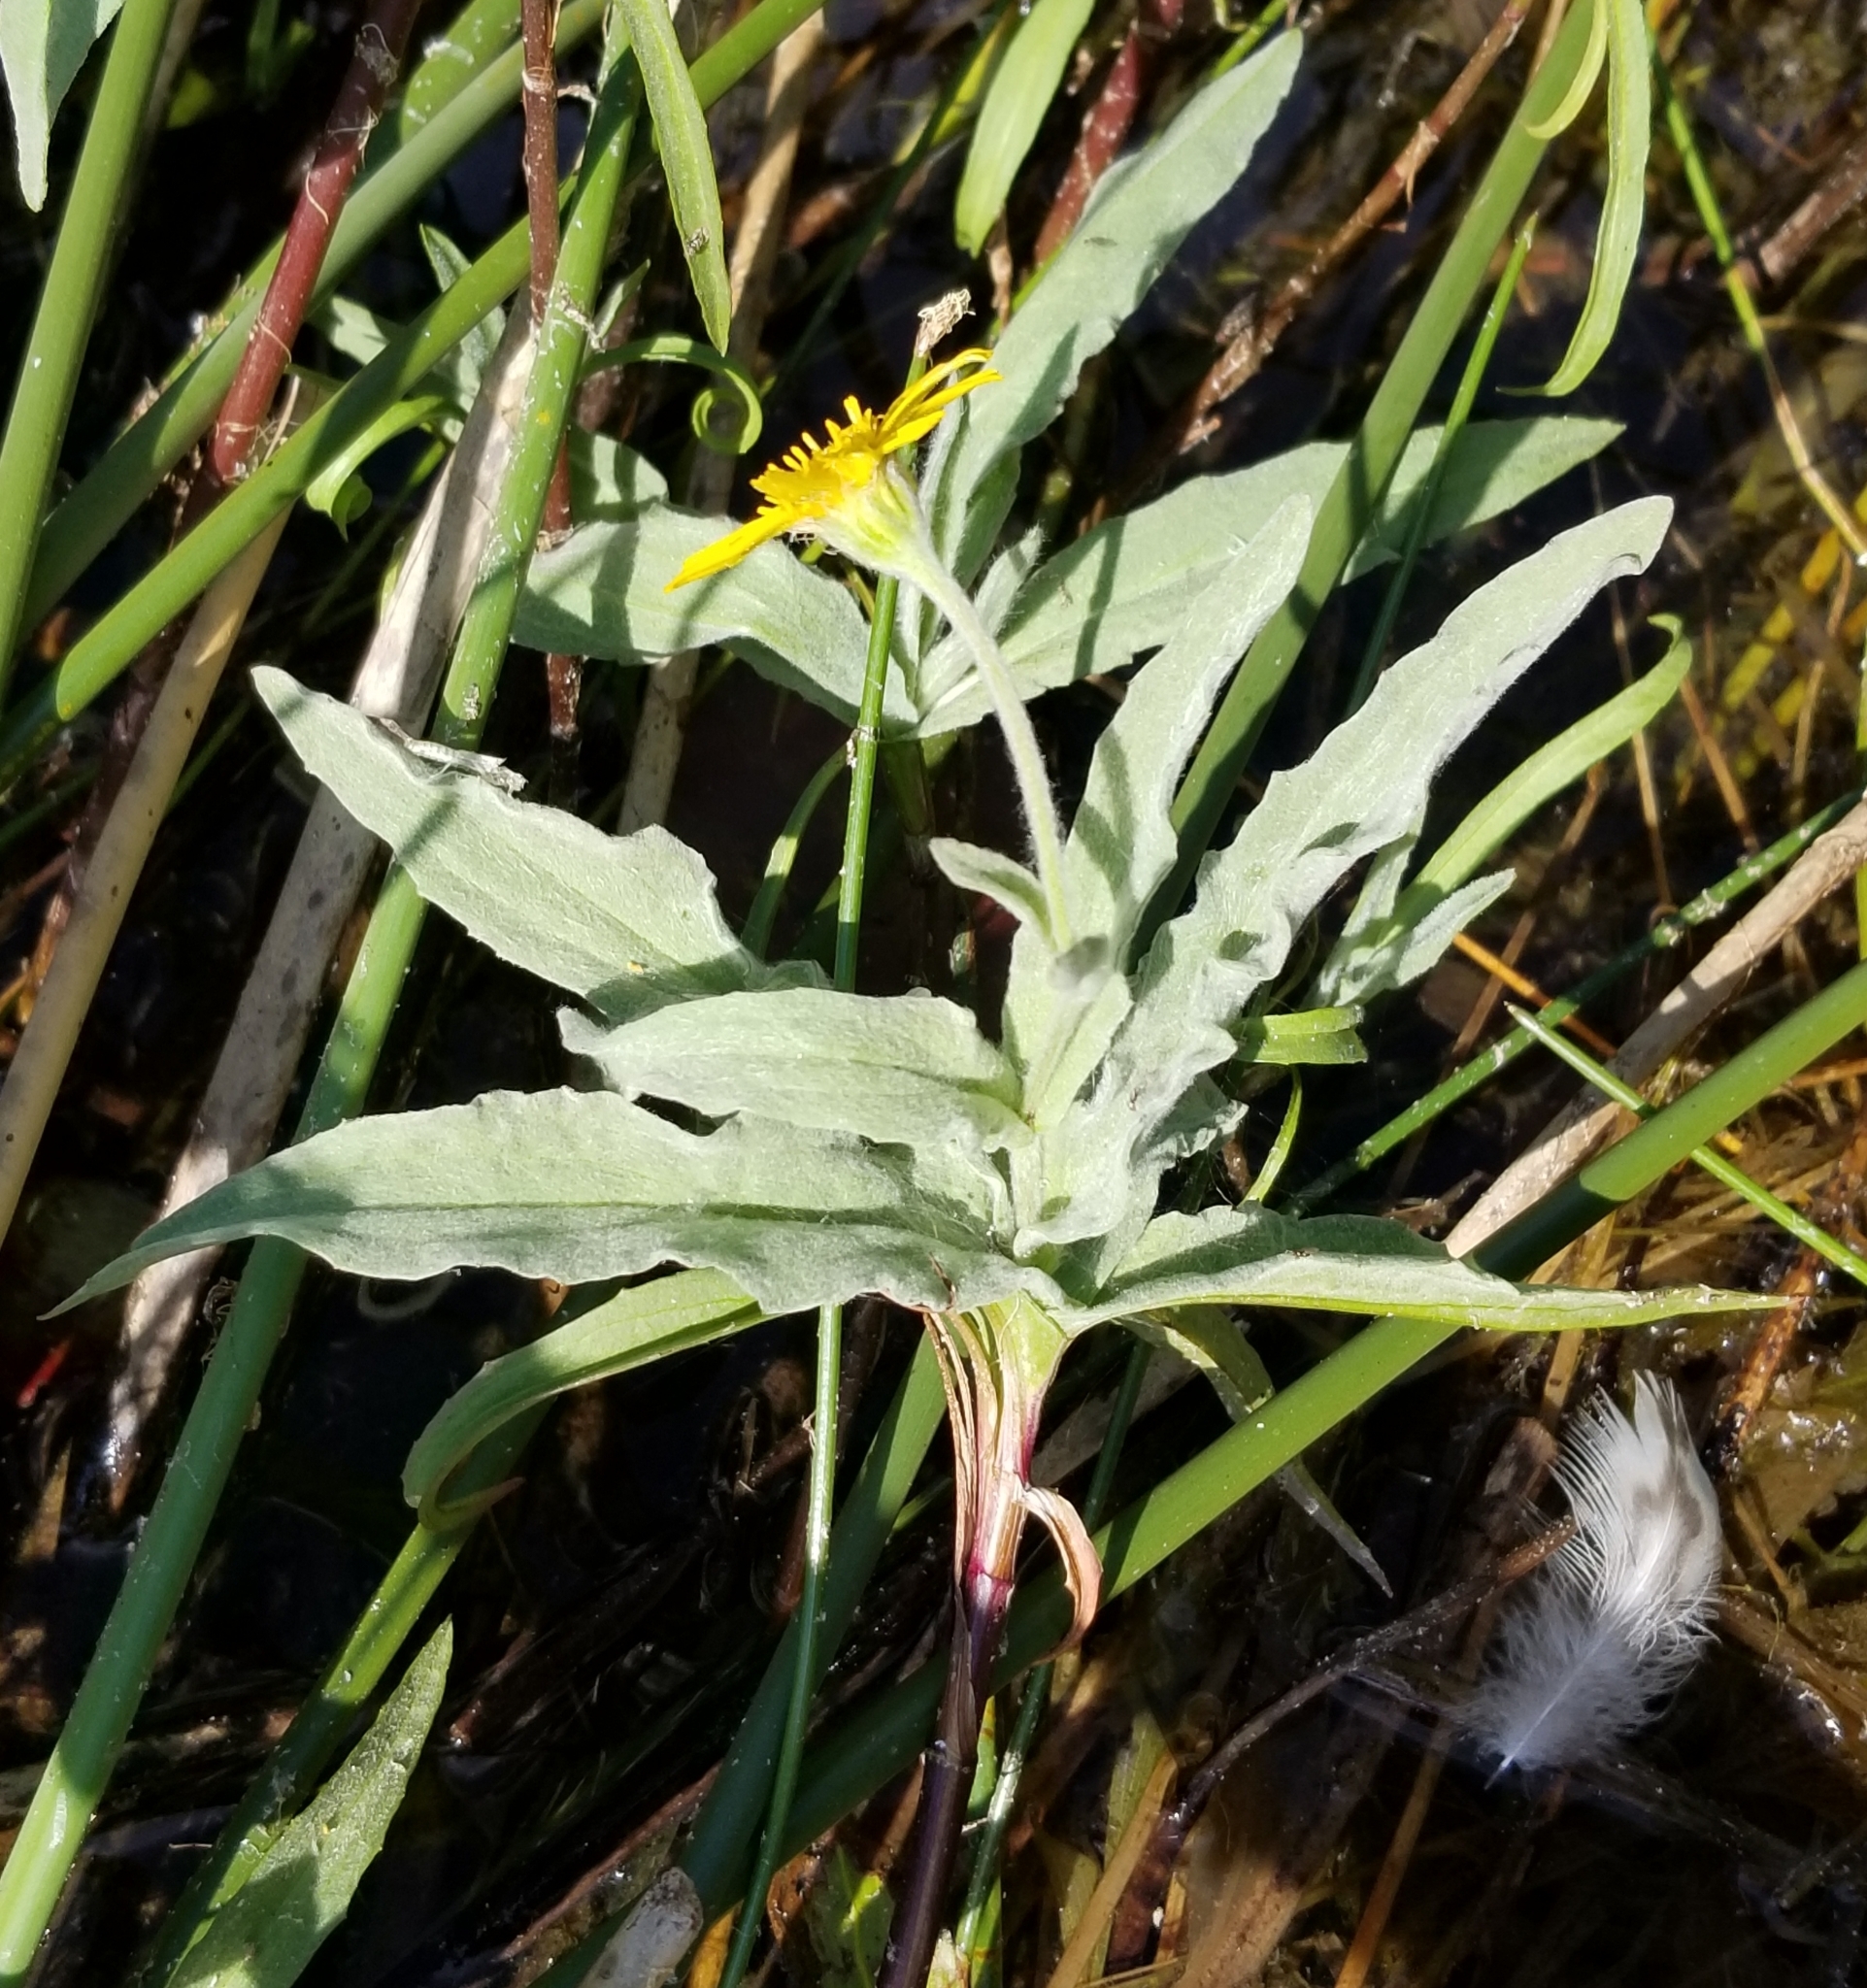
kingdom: Plantae
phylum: Tracheophyta
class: Magnoliopsida
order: Asterales
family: Asteraceae
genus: Eriophyllum
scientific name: Eriophyllum lanatum
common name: Common woolly-sunflower
